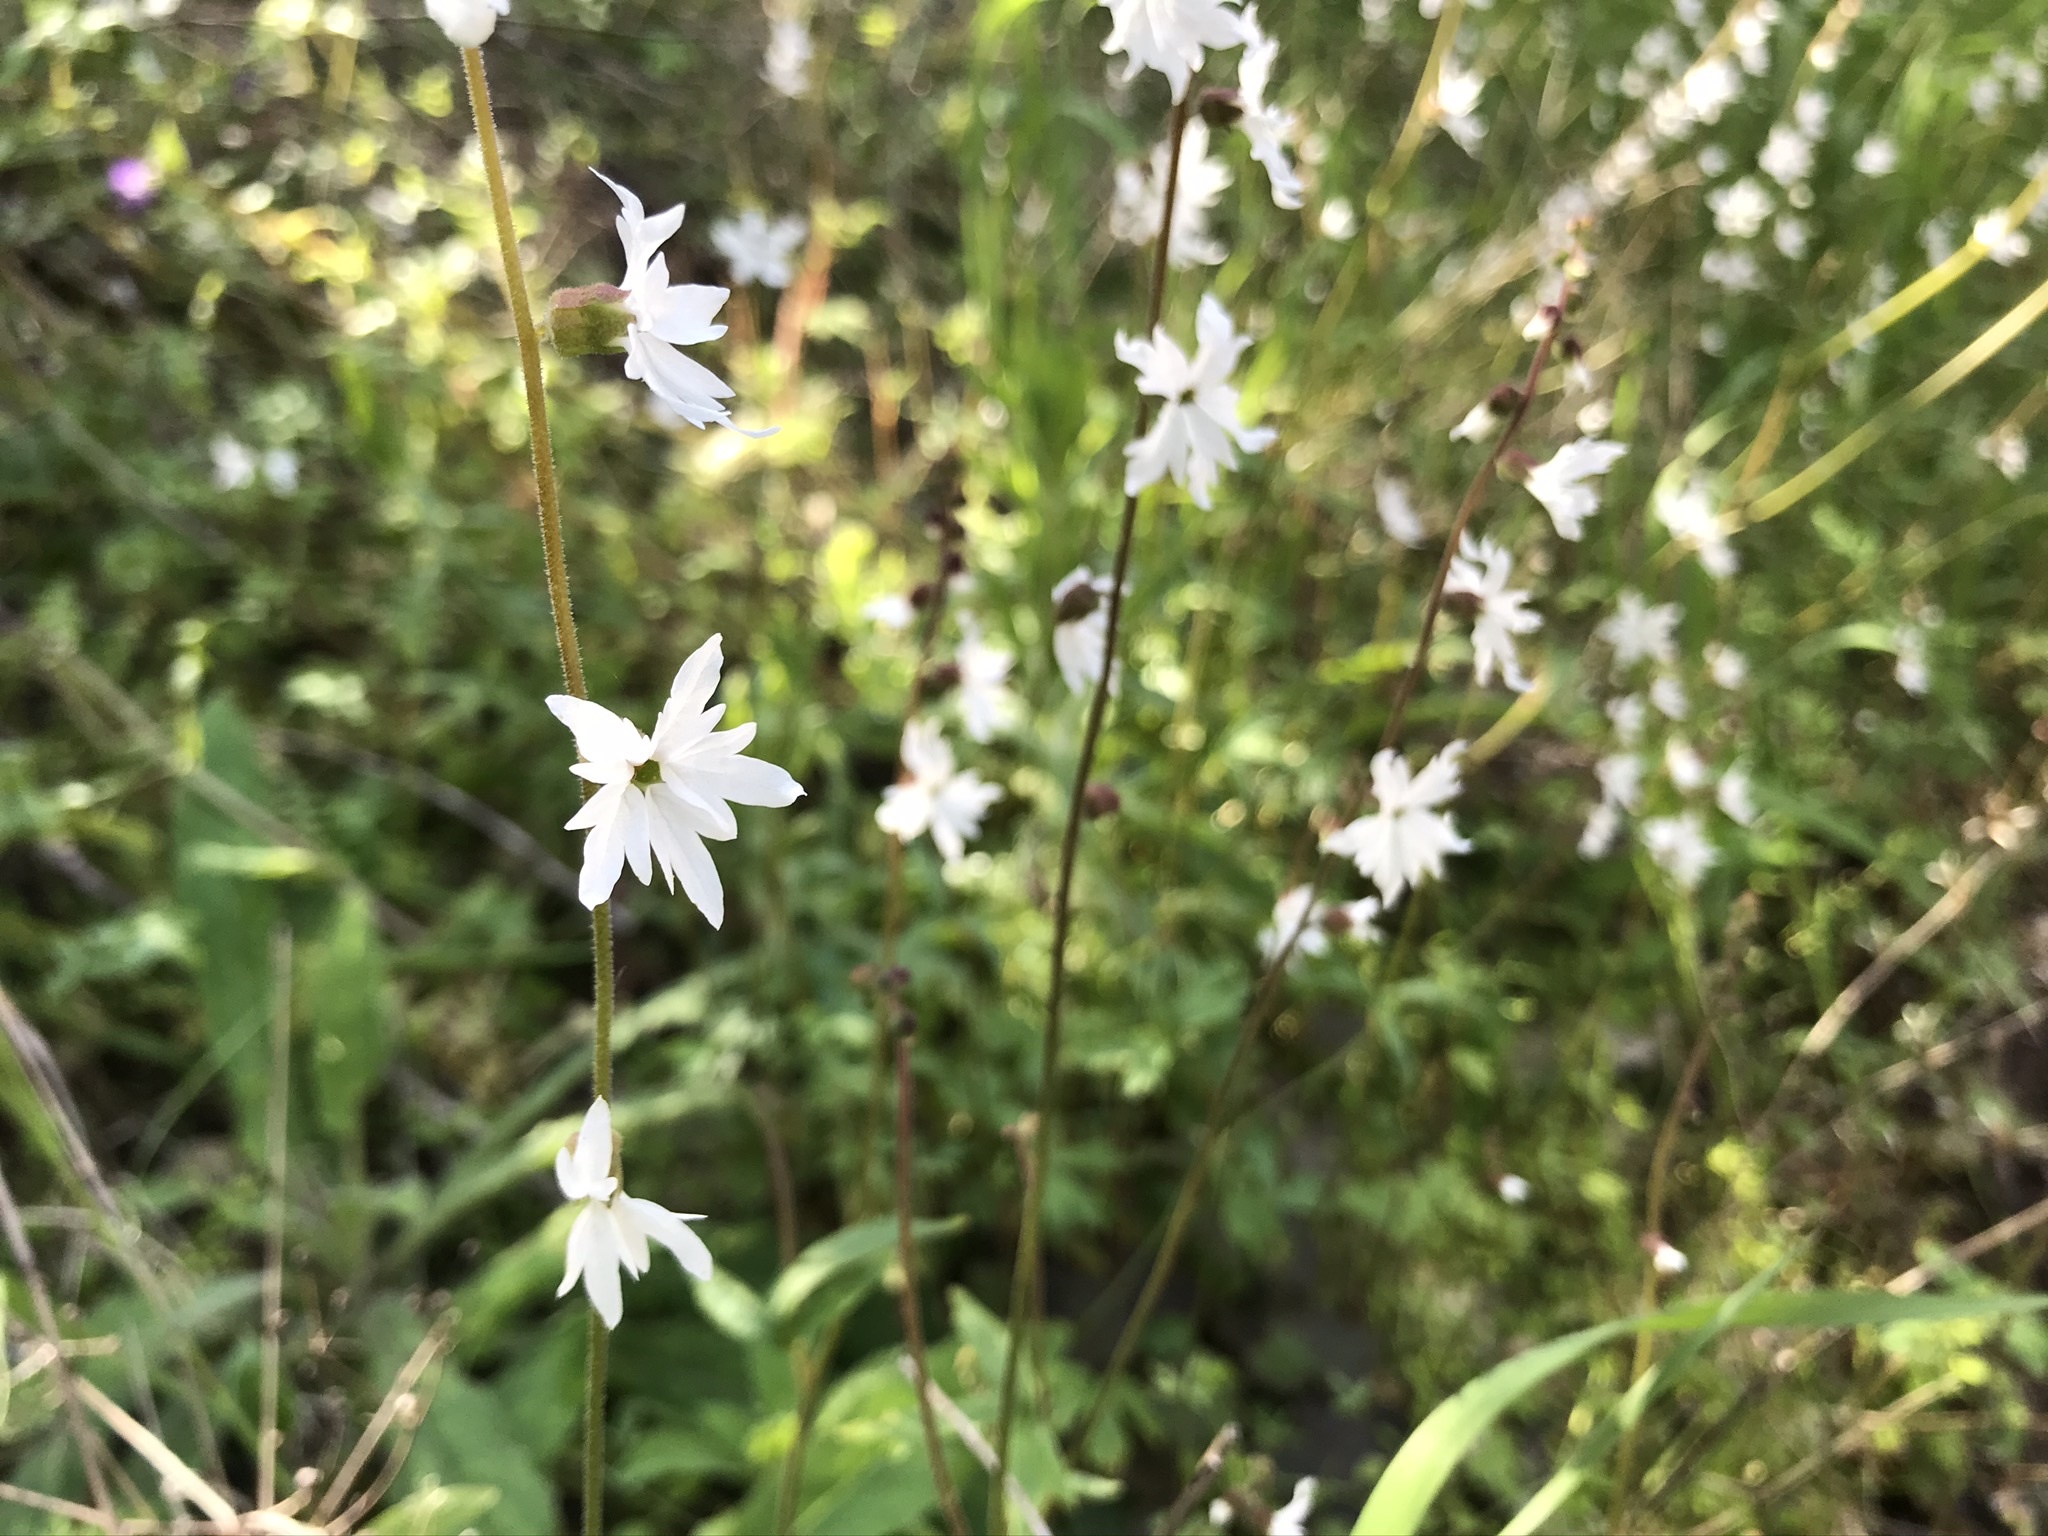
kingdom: Plantae
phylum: Tracheophyta
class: Magnoliopsida
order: Saxifragales
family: Saxifragaceae
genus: Lithophragma
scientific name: Lithophragma heterophyllum
